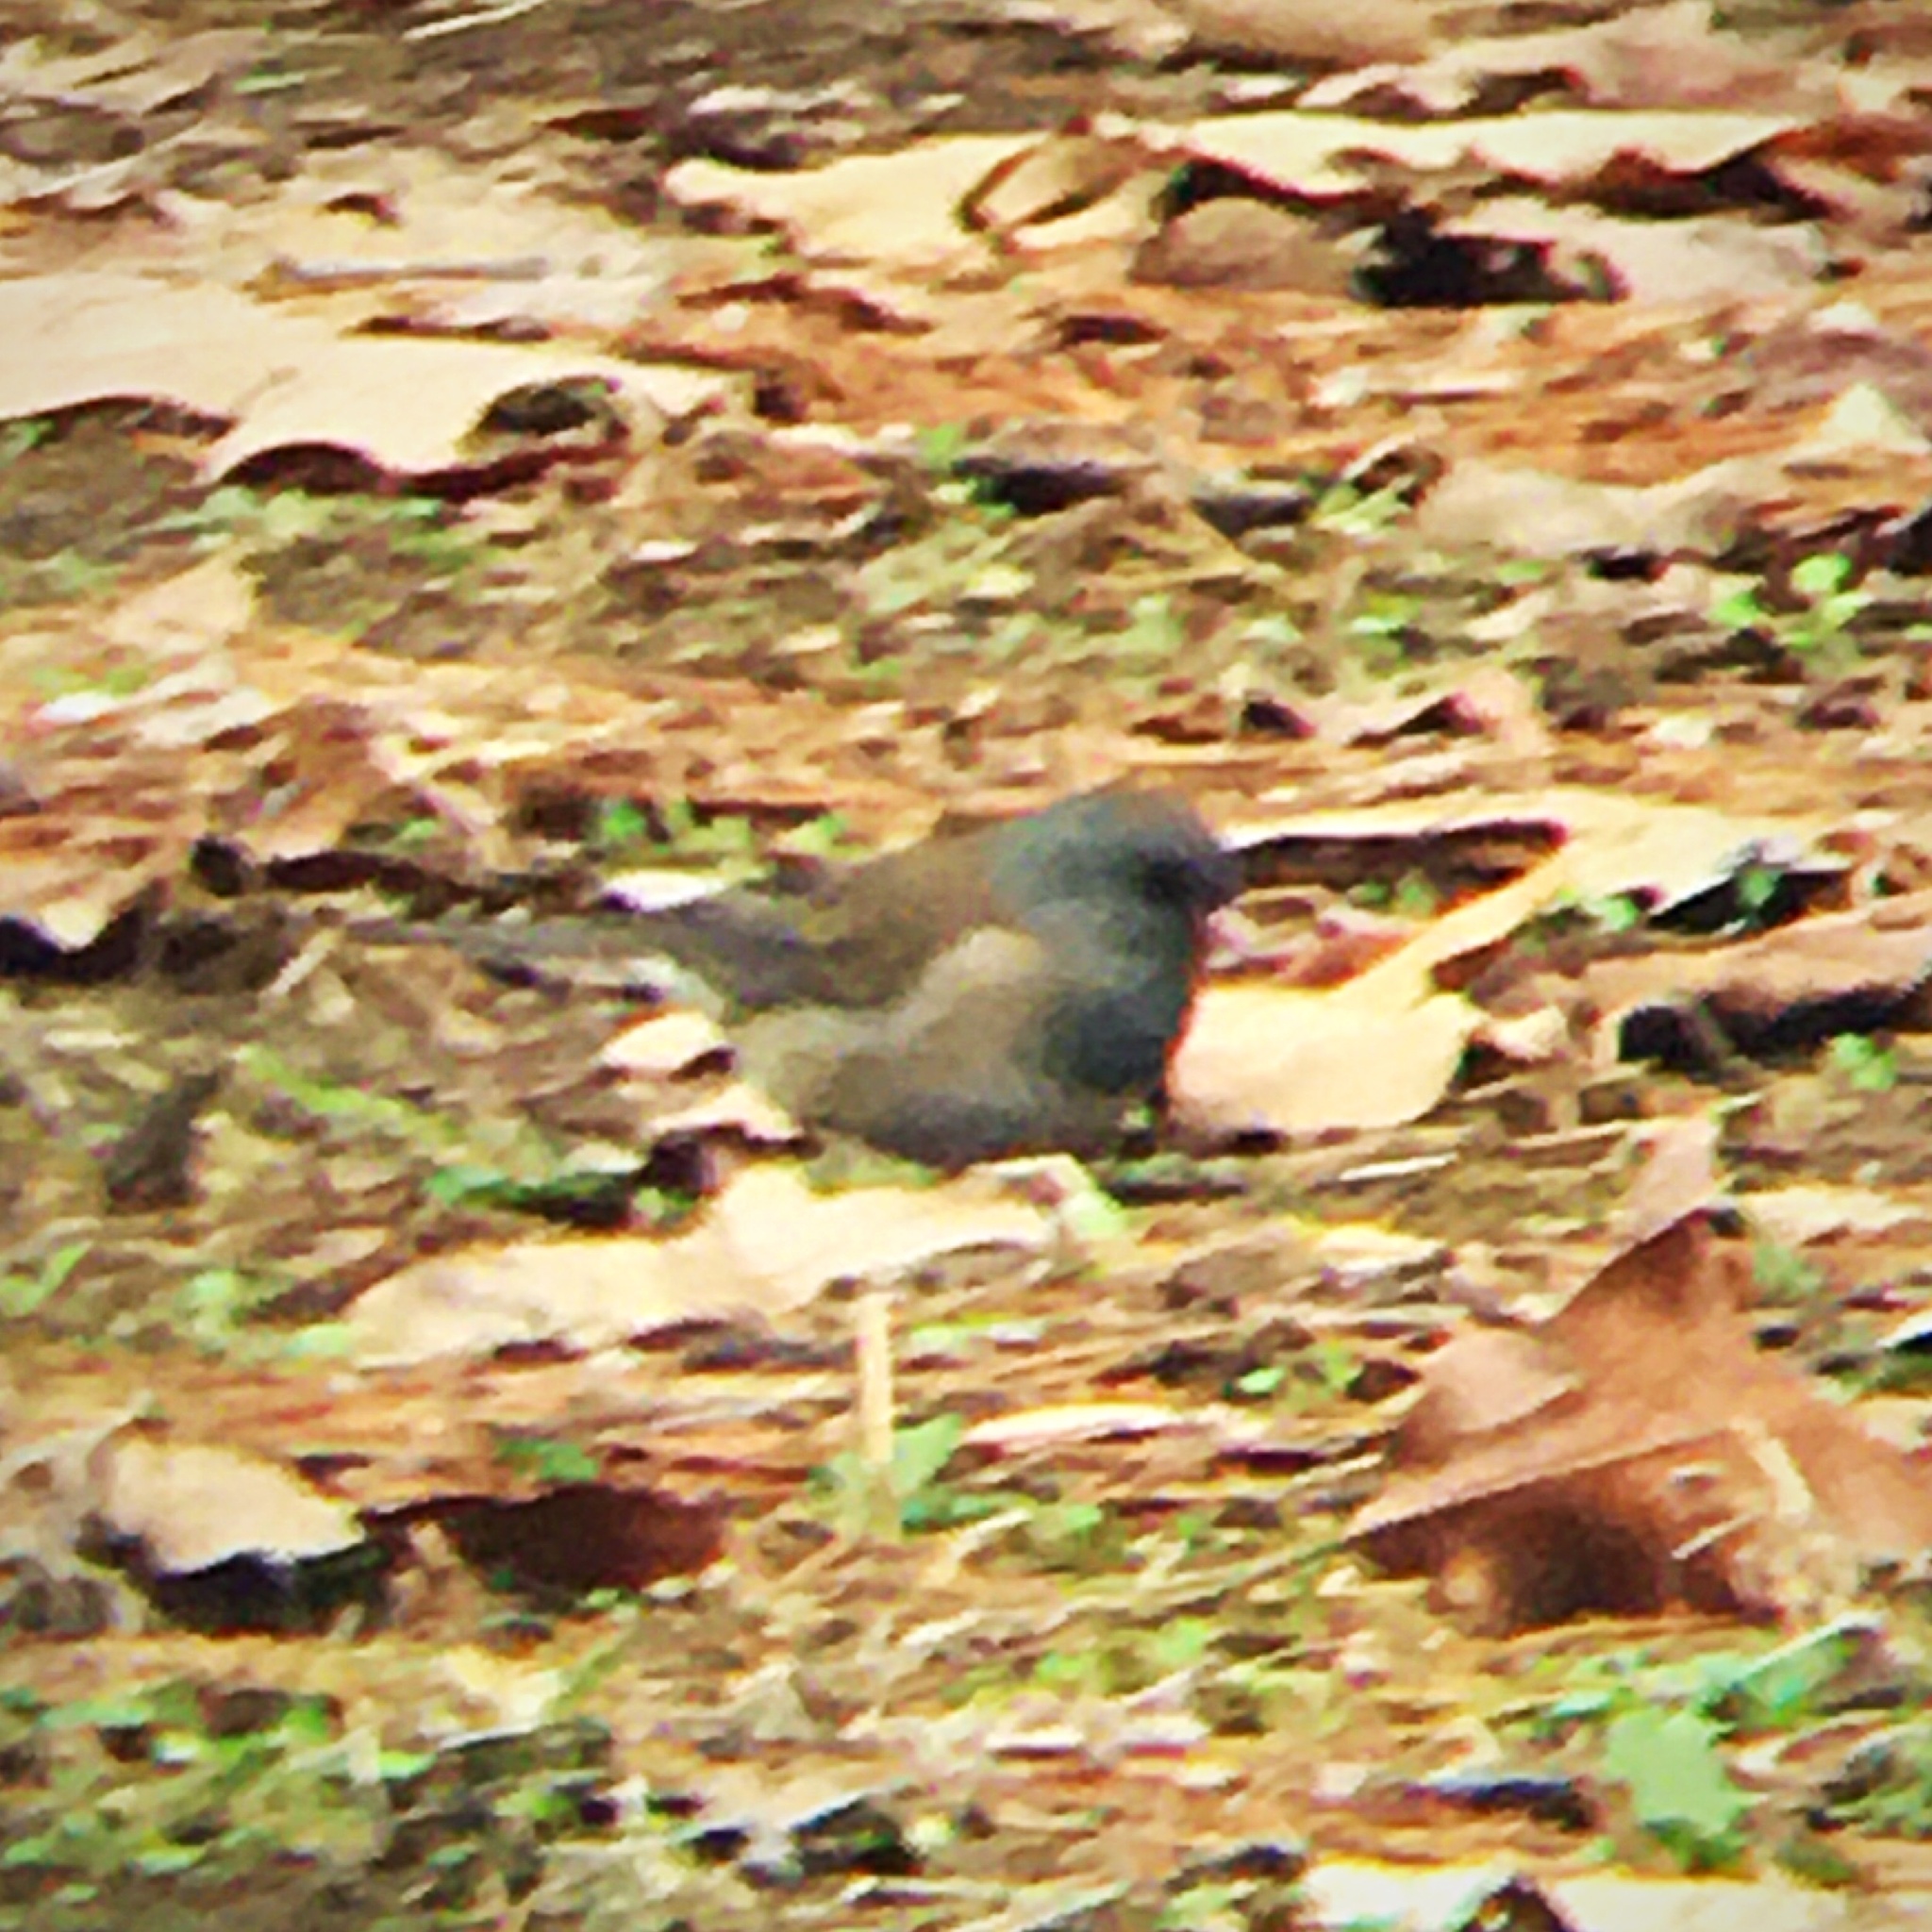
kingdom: Animalia
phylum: Chordata
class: Aves
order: Passeriformes
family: Passerellidae
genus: Junco
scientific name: Junco hyemalis
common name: Dark-eyed junco
